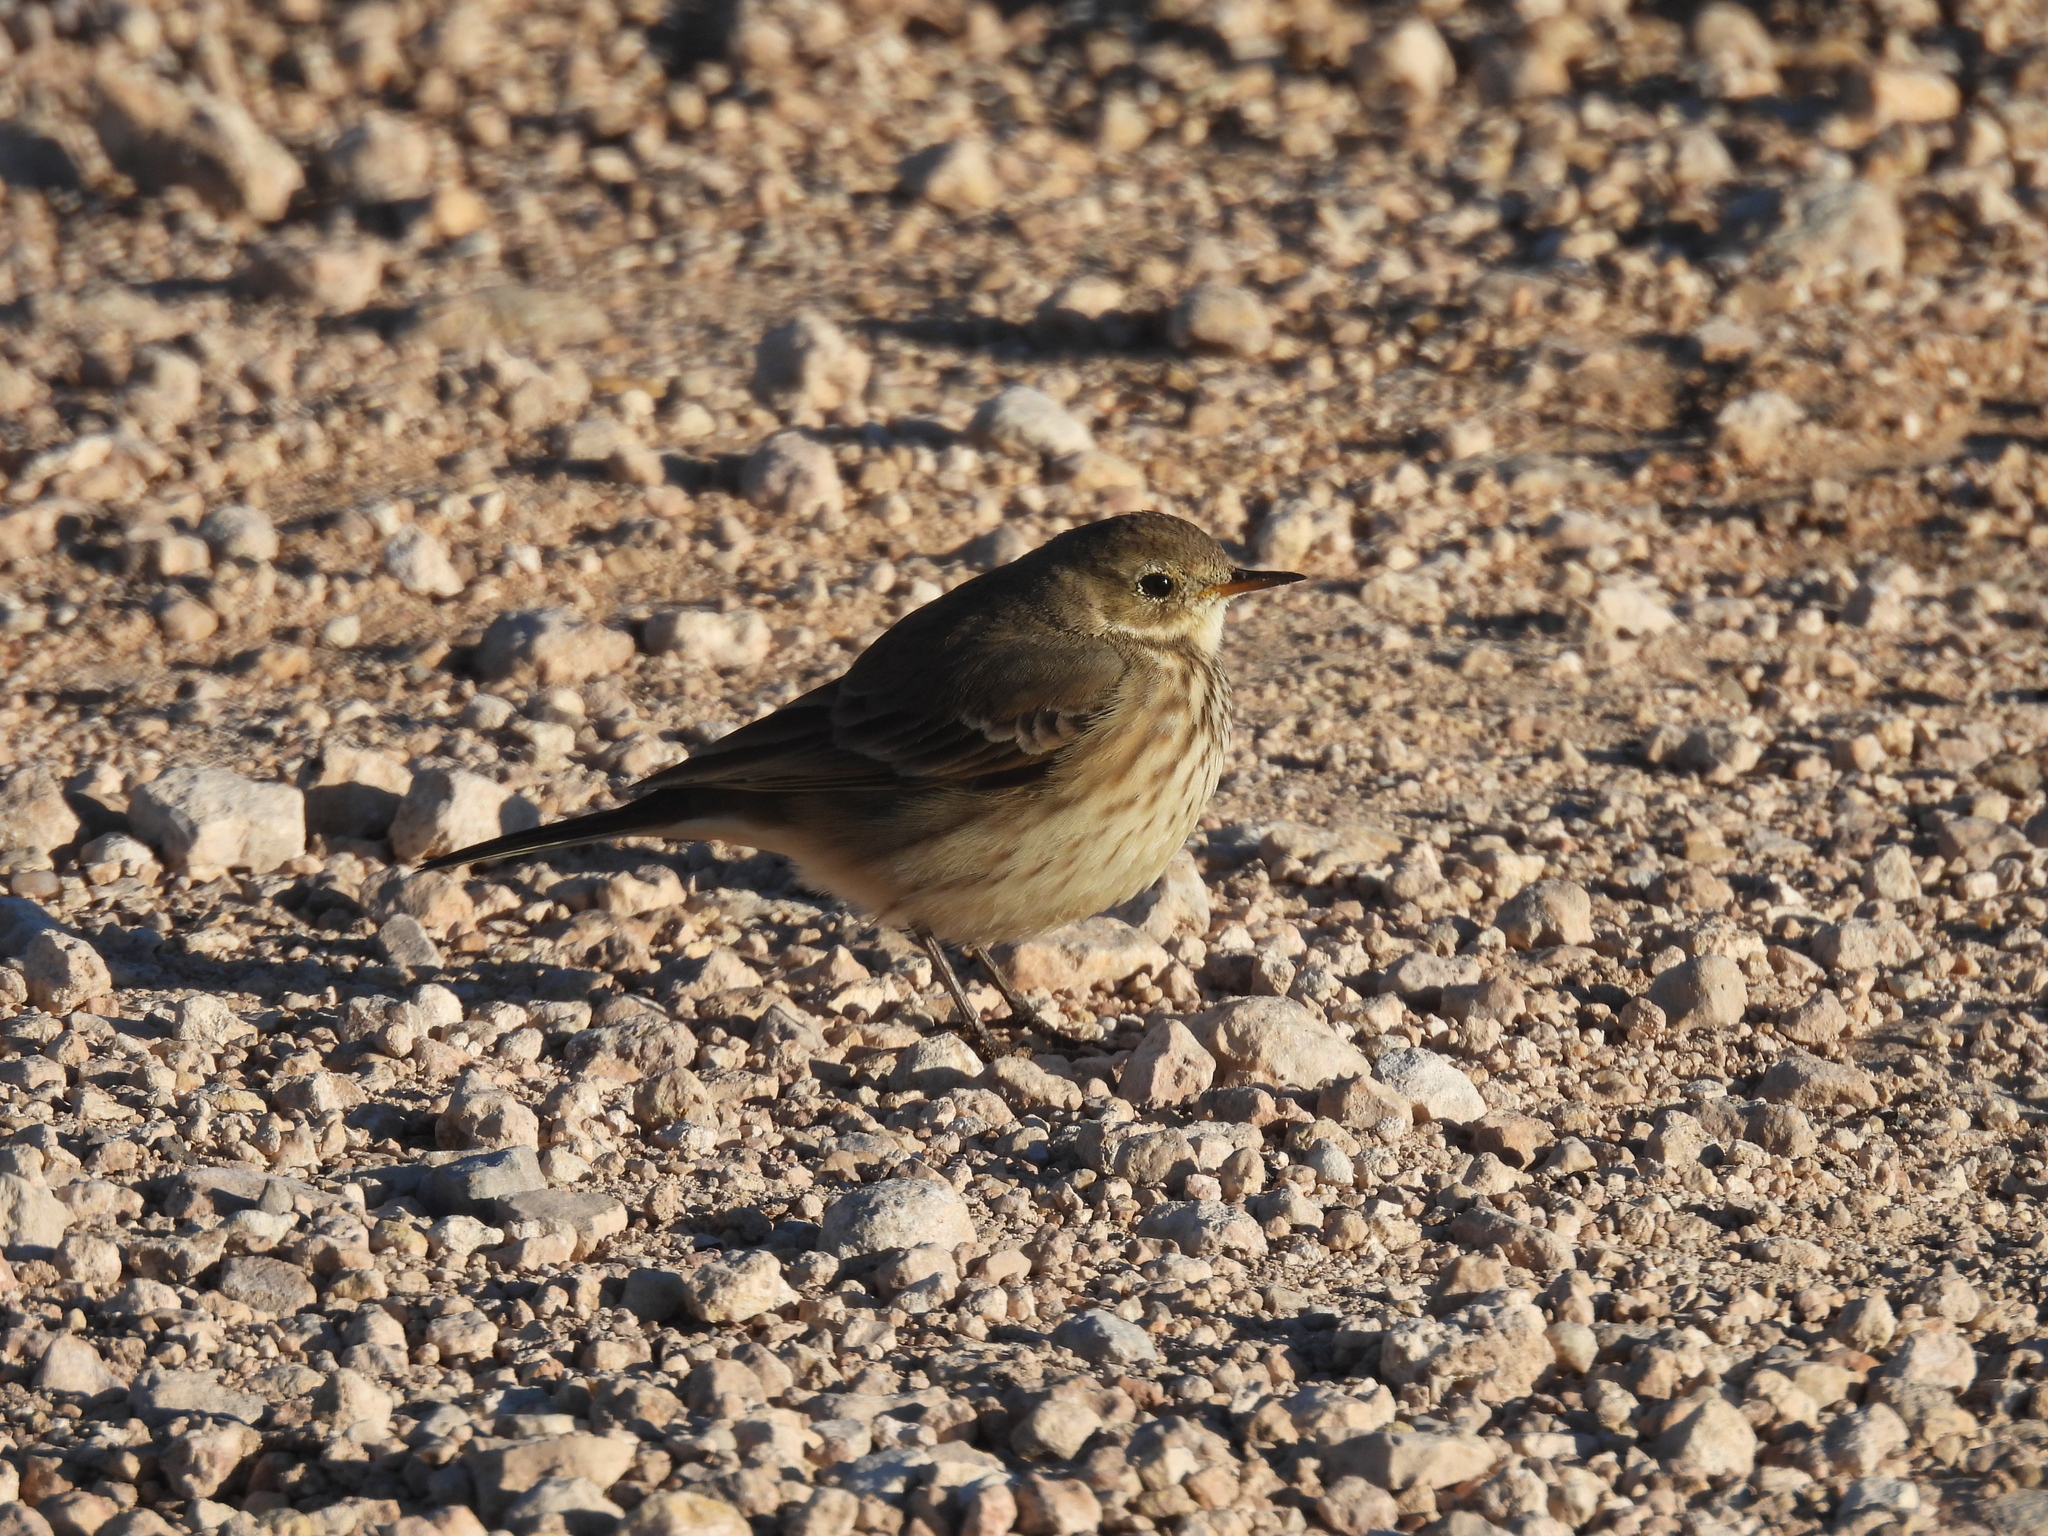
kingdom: Animalia
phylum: Chordata
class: Aves
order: Passeriformes
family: Motacillidae
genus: Anthus
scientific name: Anthus rubescens
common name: Buff-bellied pipit
